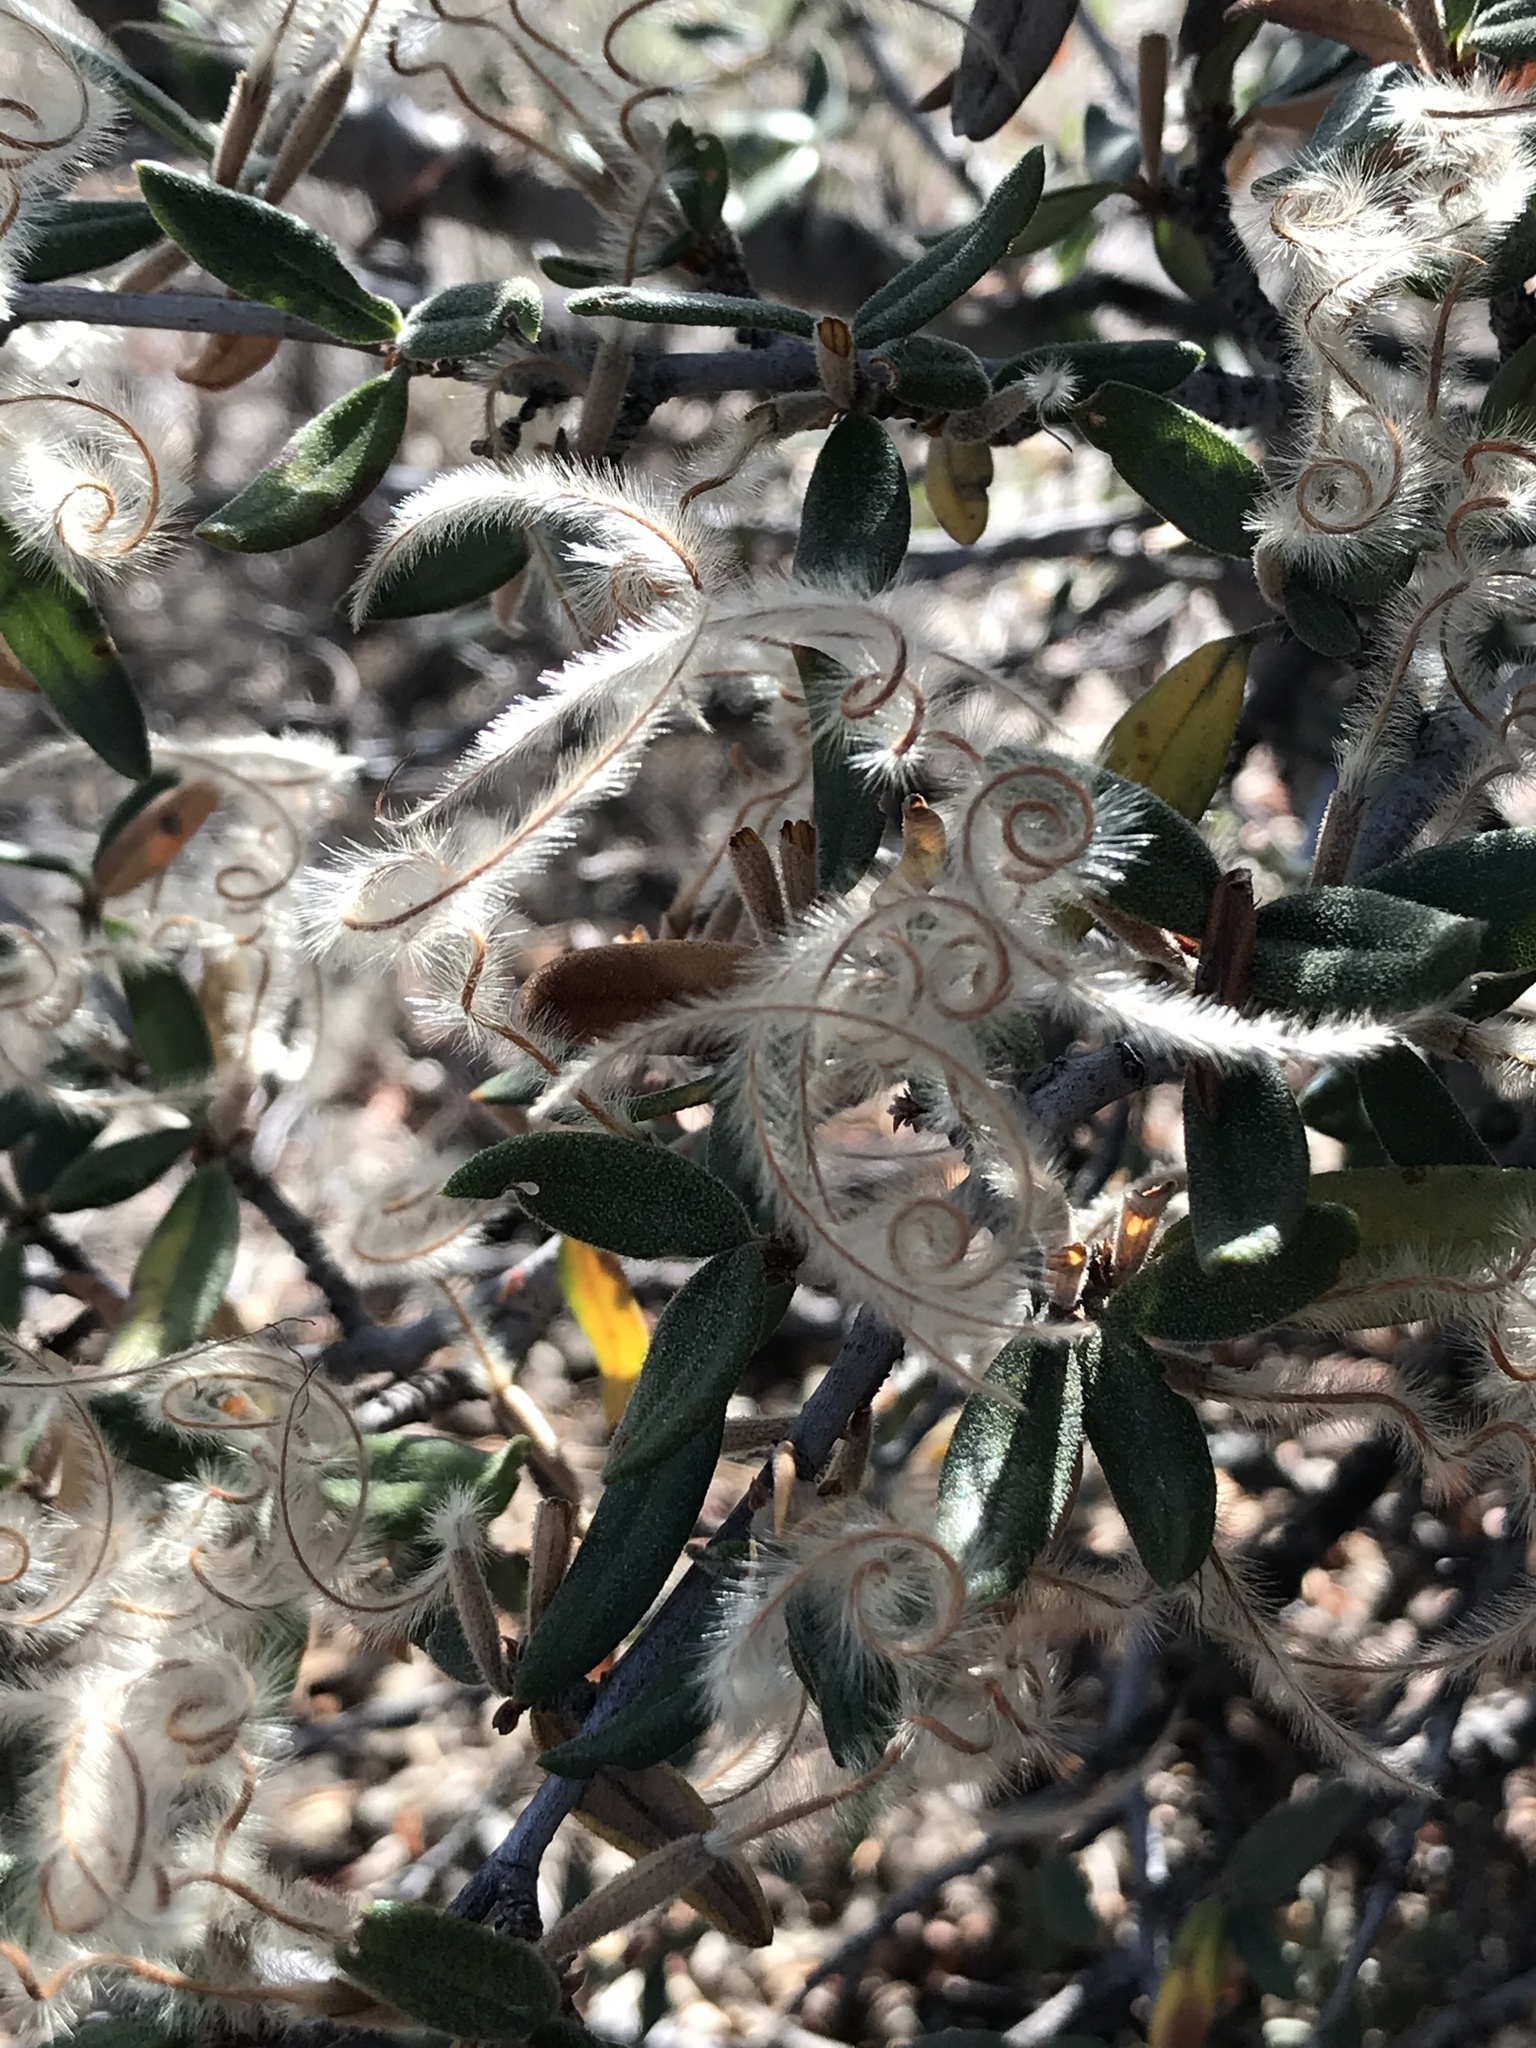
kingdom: Plantae
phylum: Tracheophyta
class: Magnoliopsida
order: Rosales
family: Rosaceae
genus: Cercocarpus
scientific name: Cercocarpus ledifolius
